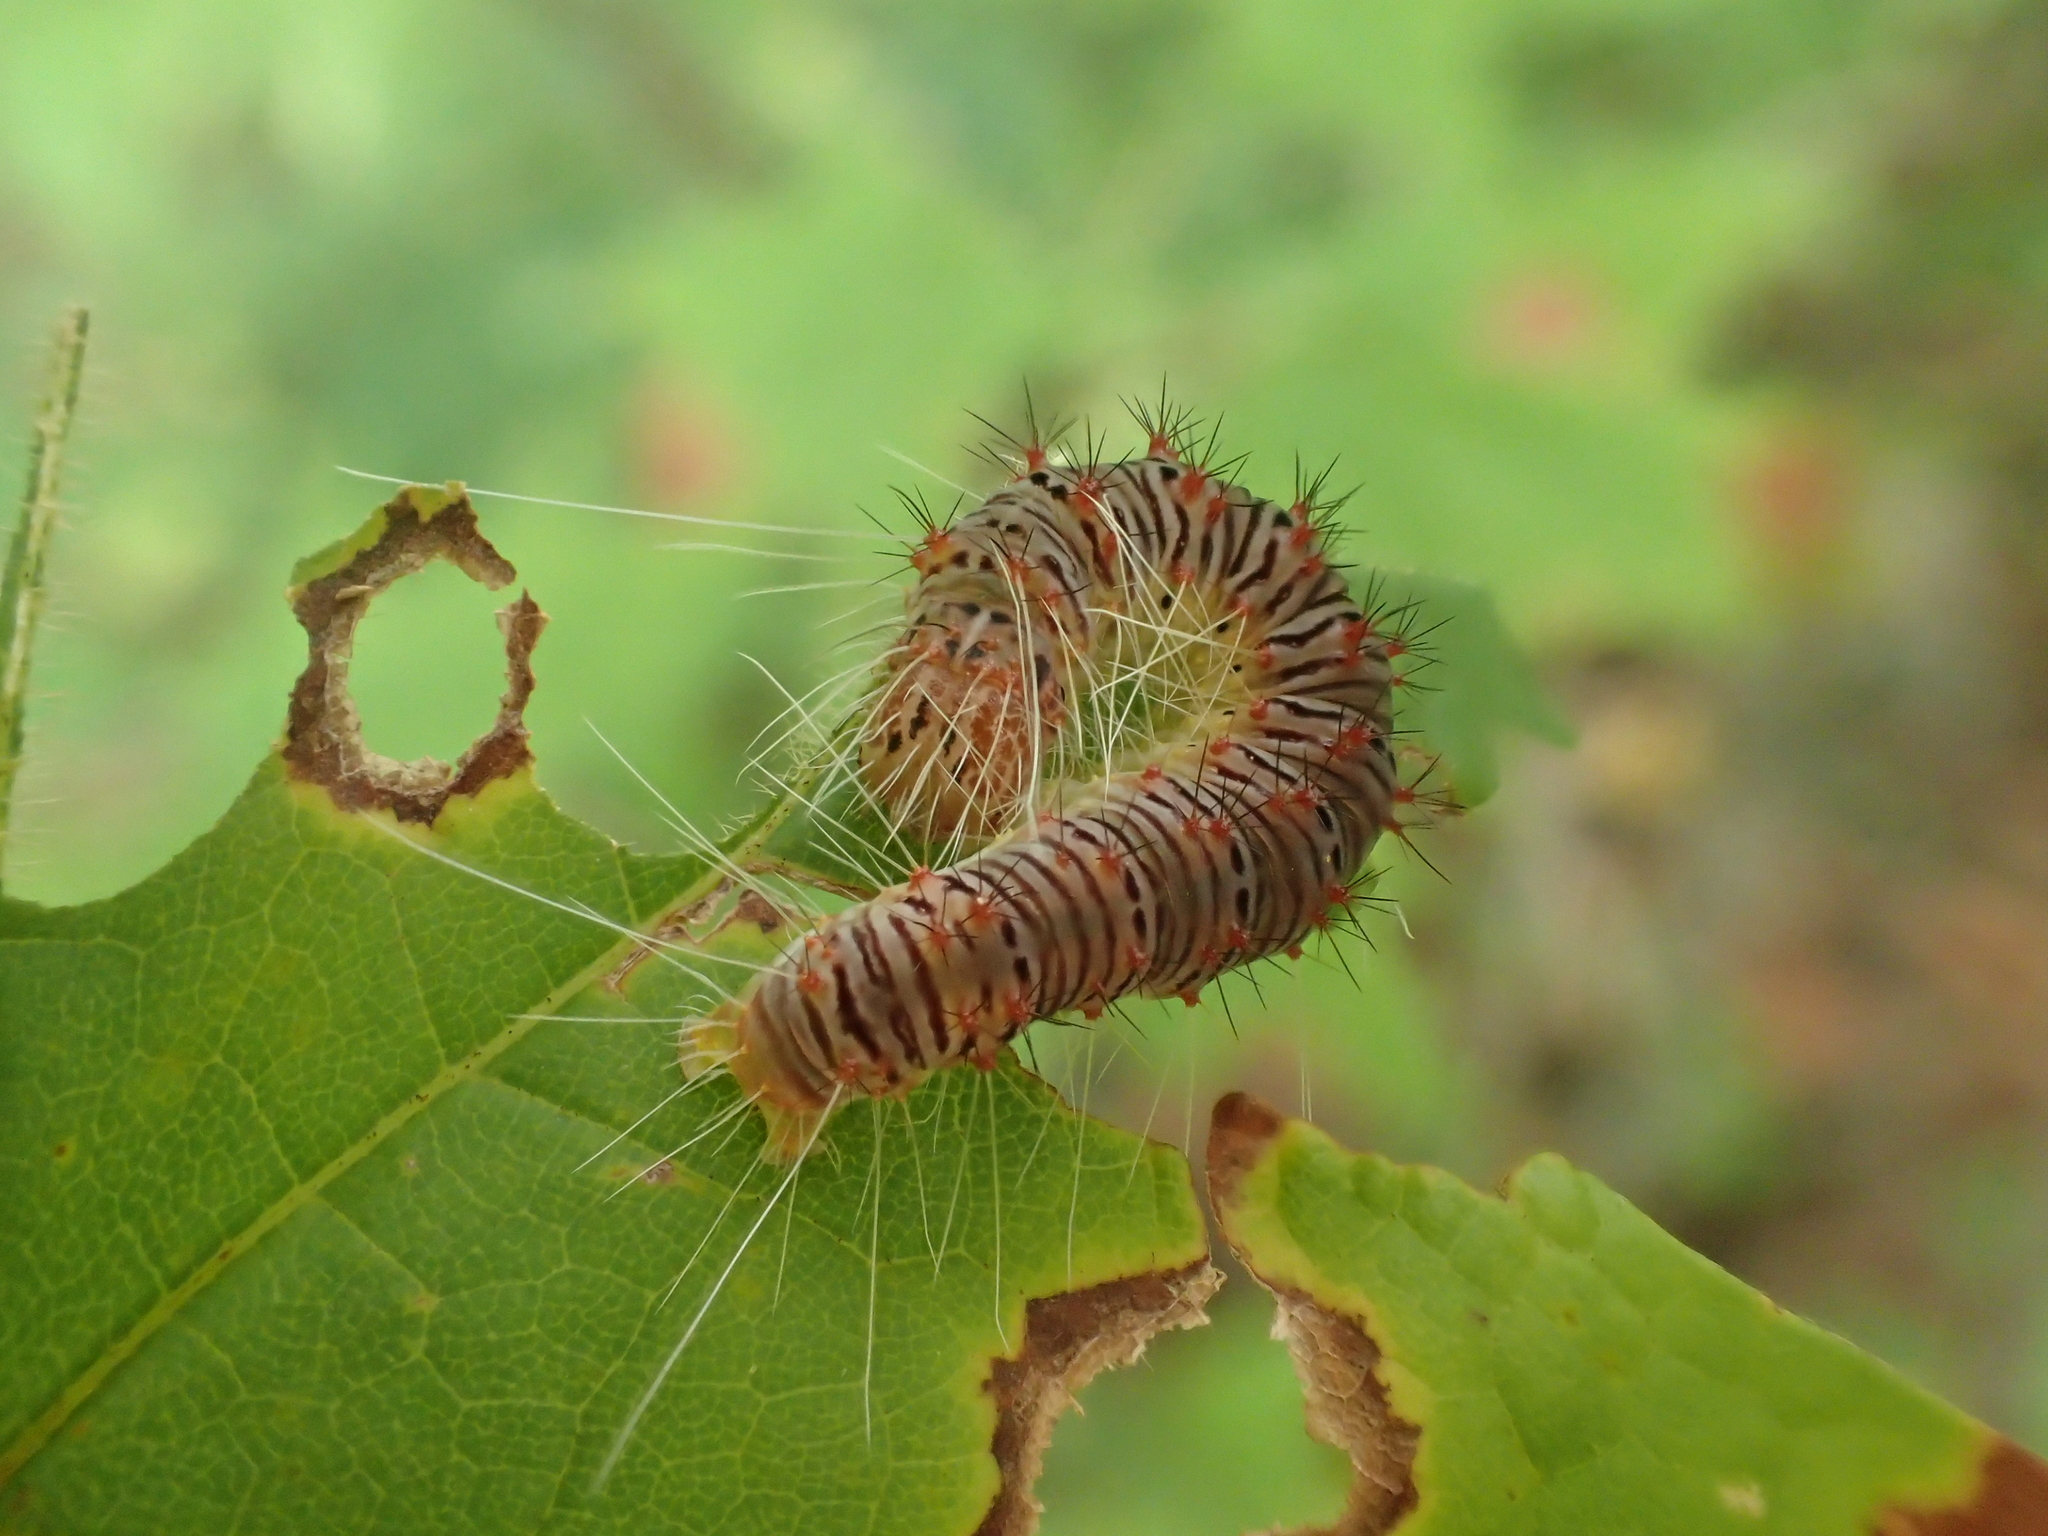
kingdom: Animalia
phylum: Arthropoda
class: Insecta
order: Lepidoptera
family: Noctuidae
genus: Acronicta
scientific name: Acronicta retardata
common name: Maple dagger
